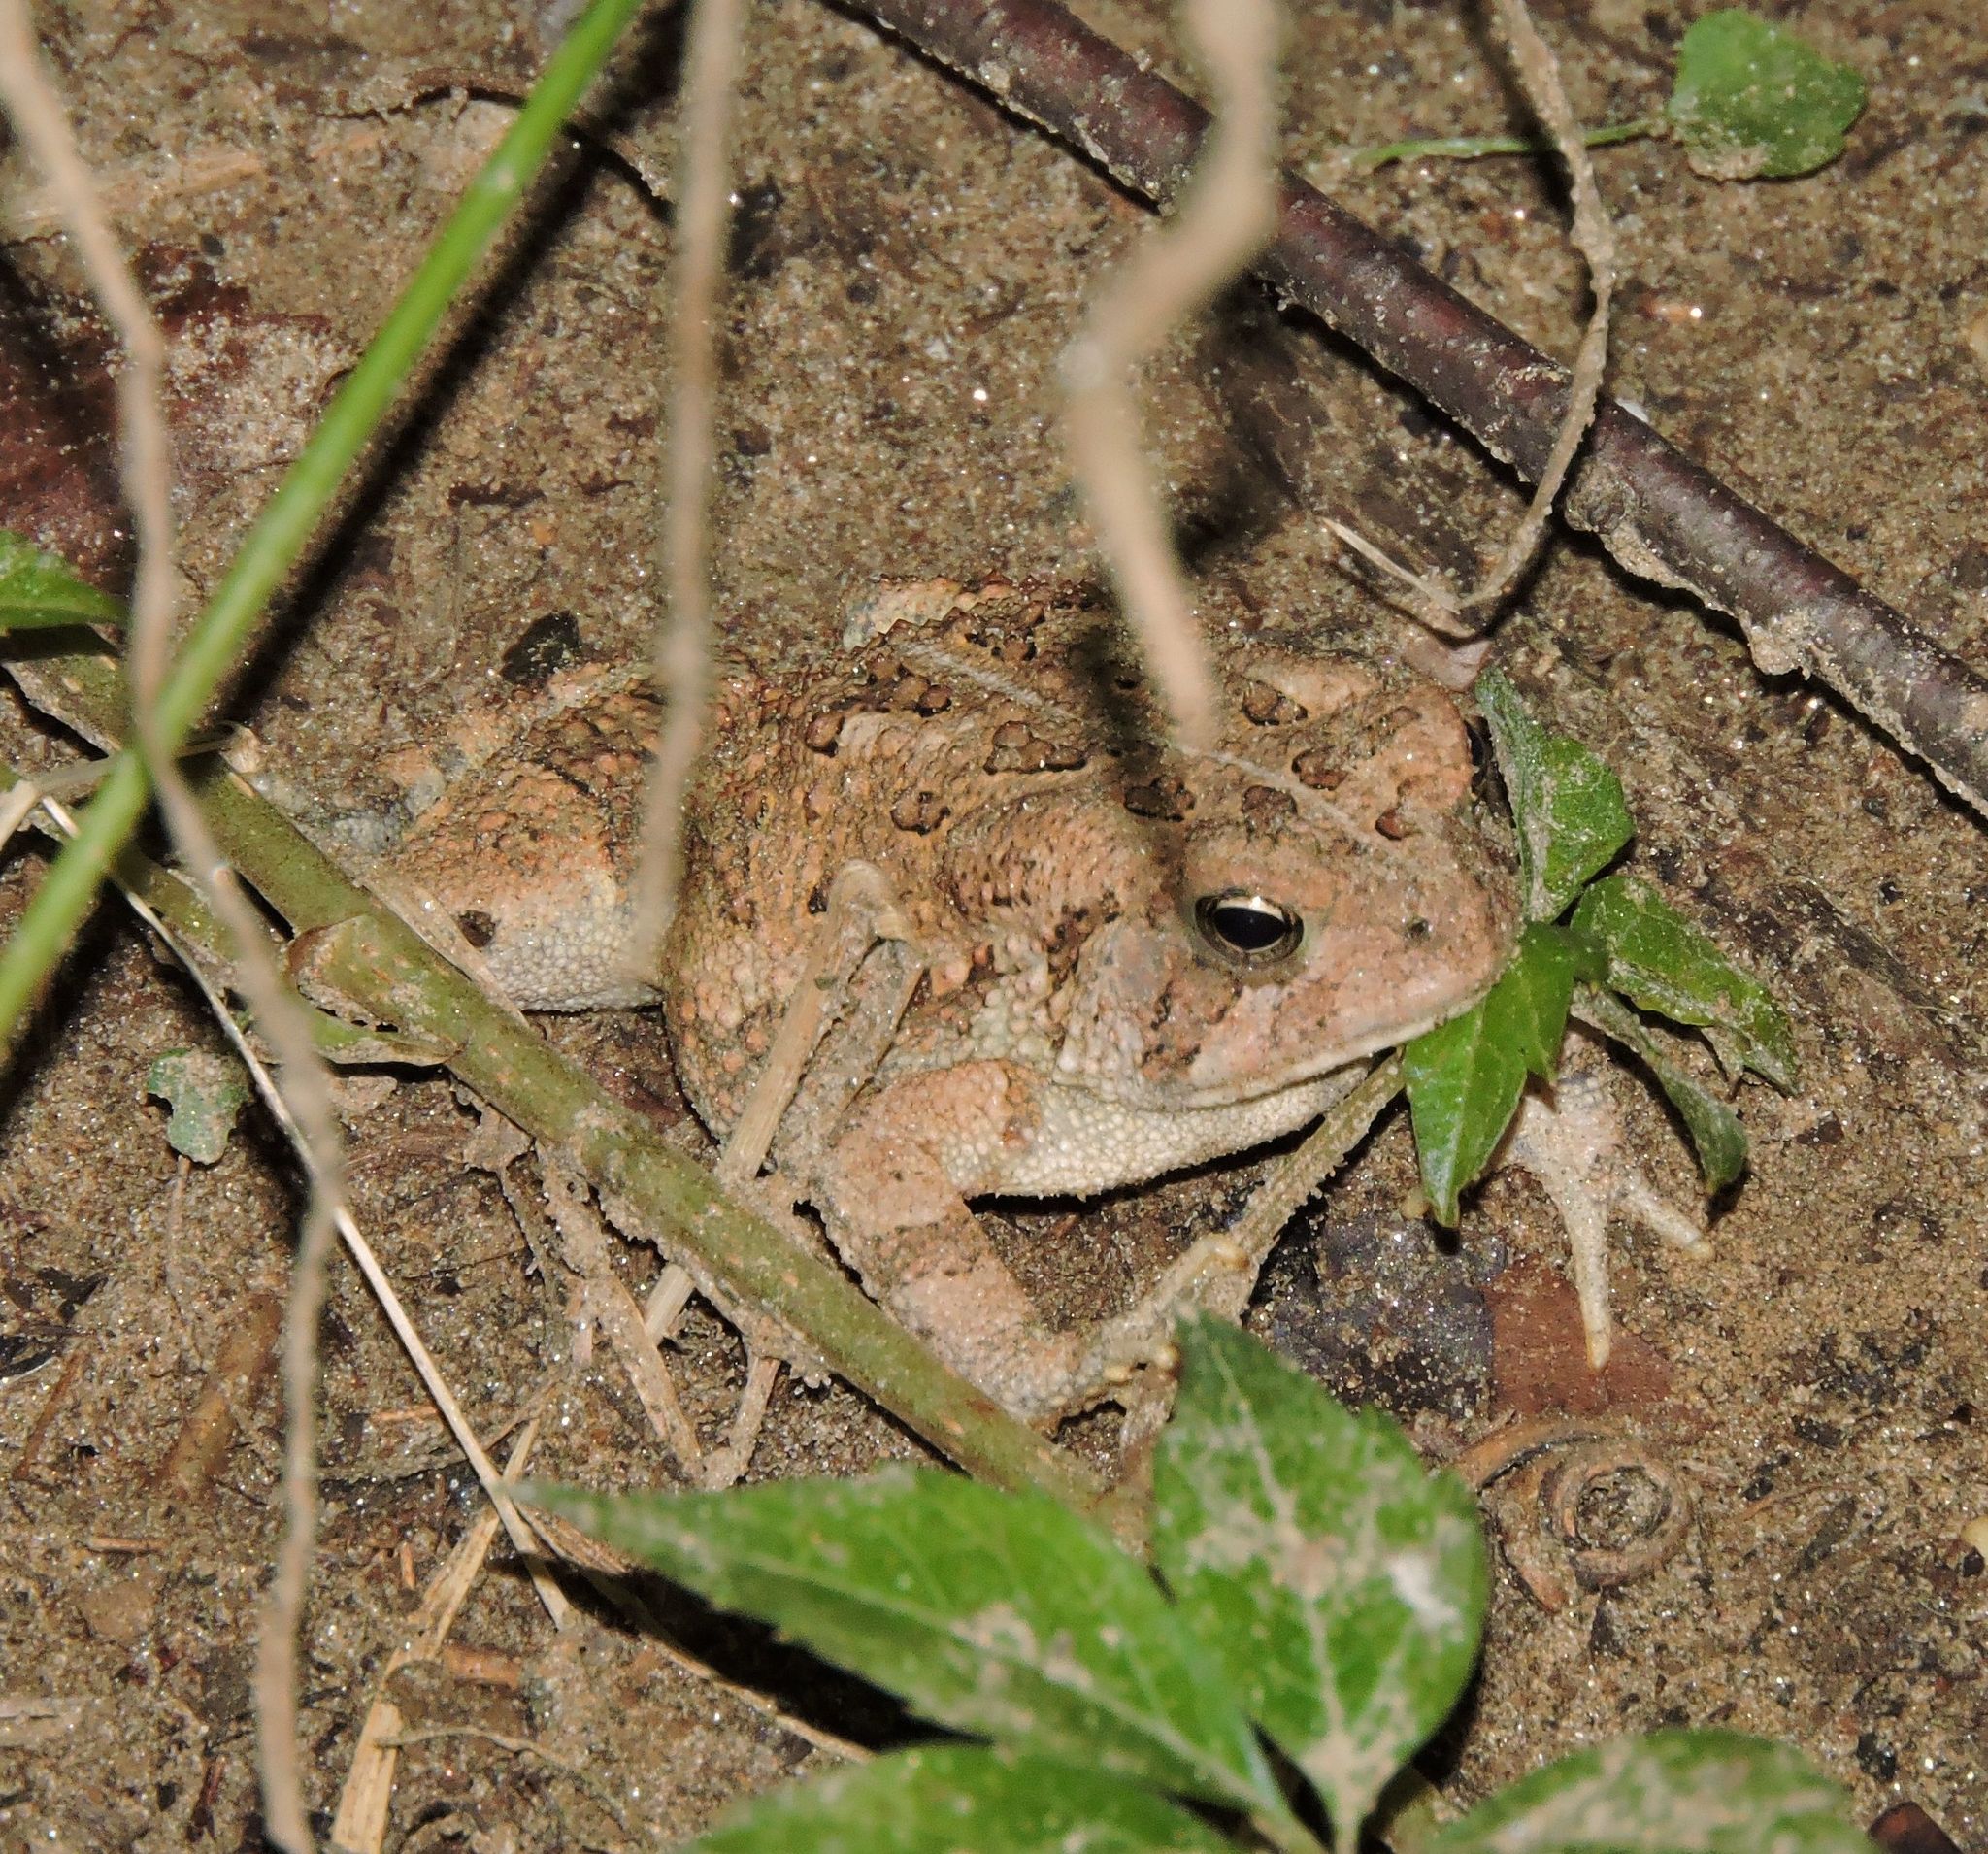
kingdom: Animalia
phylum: Chordata
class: Amphibia
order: Anura
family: Bufonidae
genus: Anaxyrus
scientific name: Anaxyrus fowleri
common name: Fowler's toad
